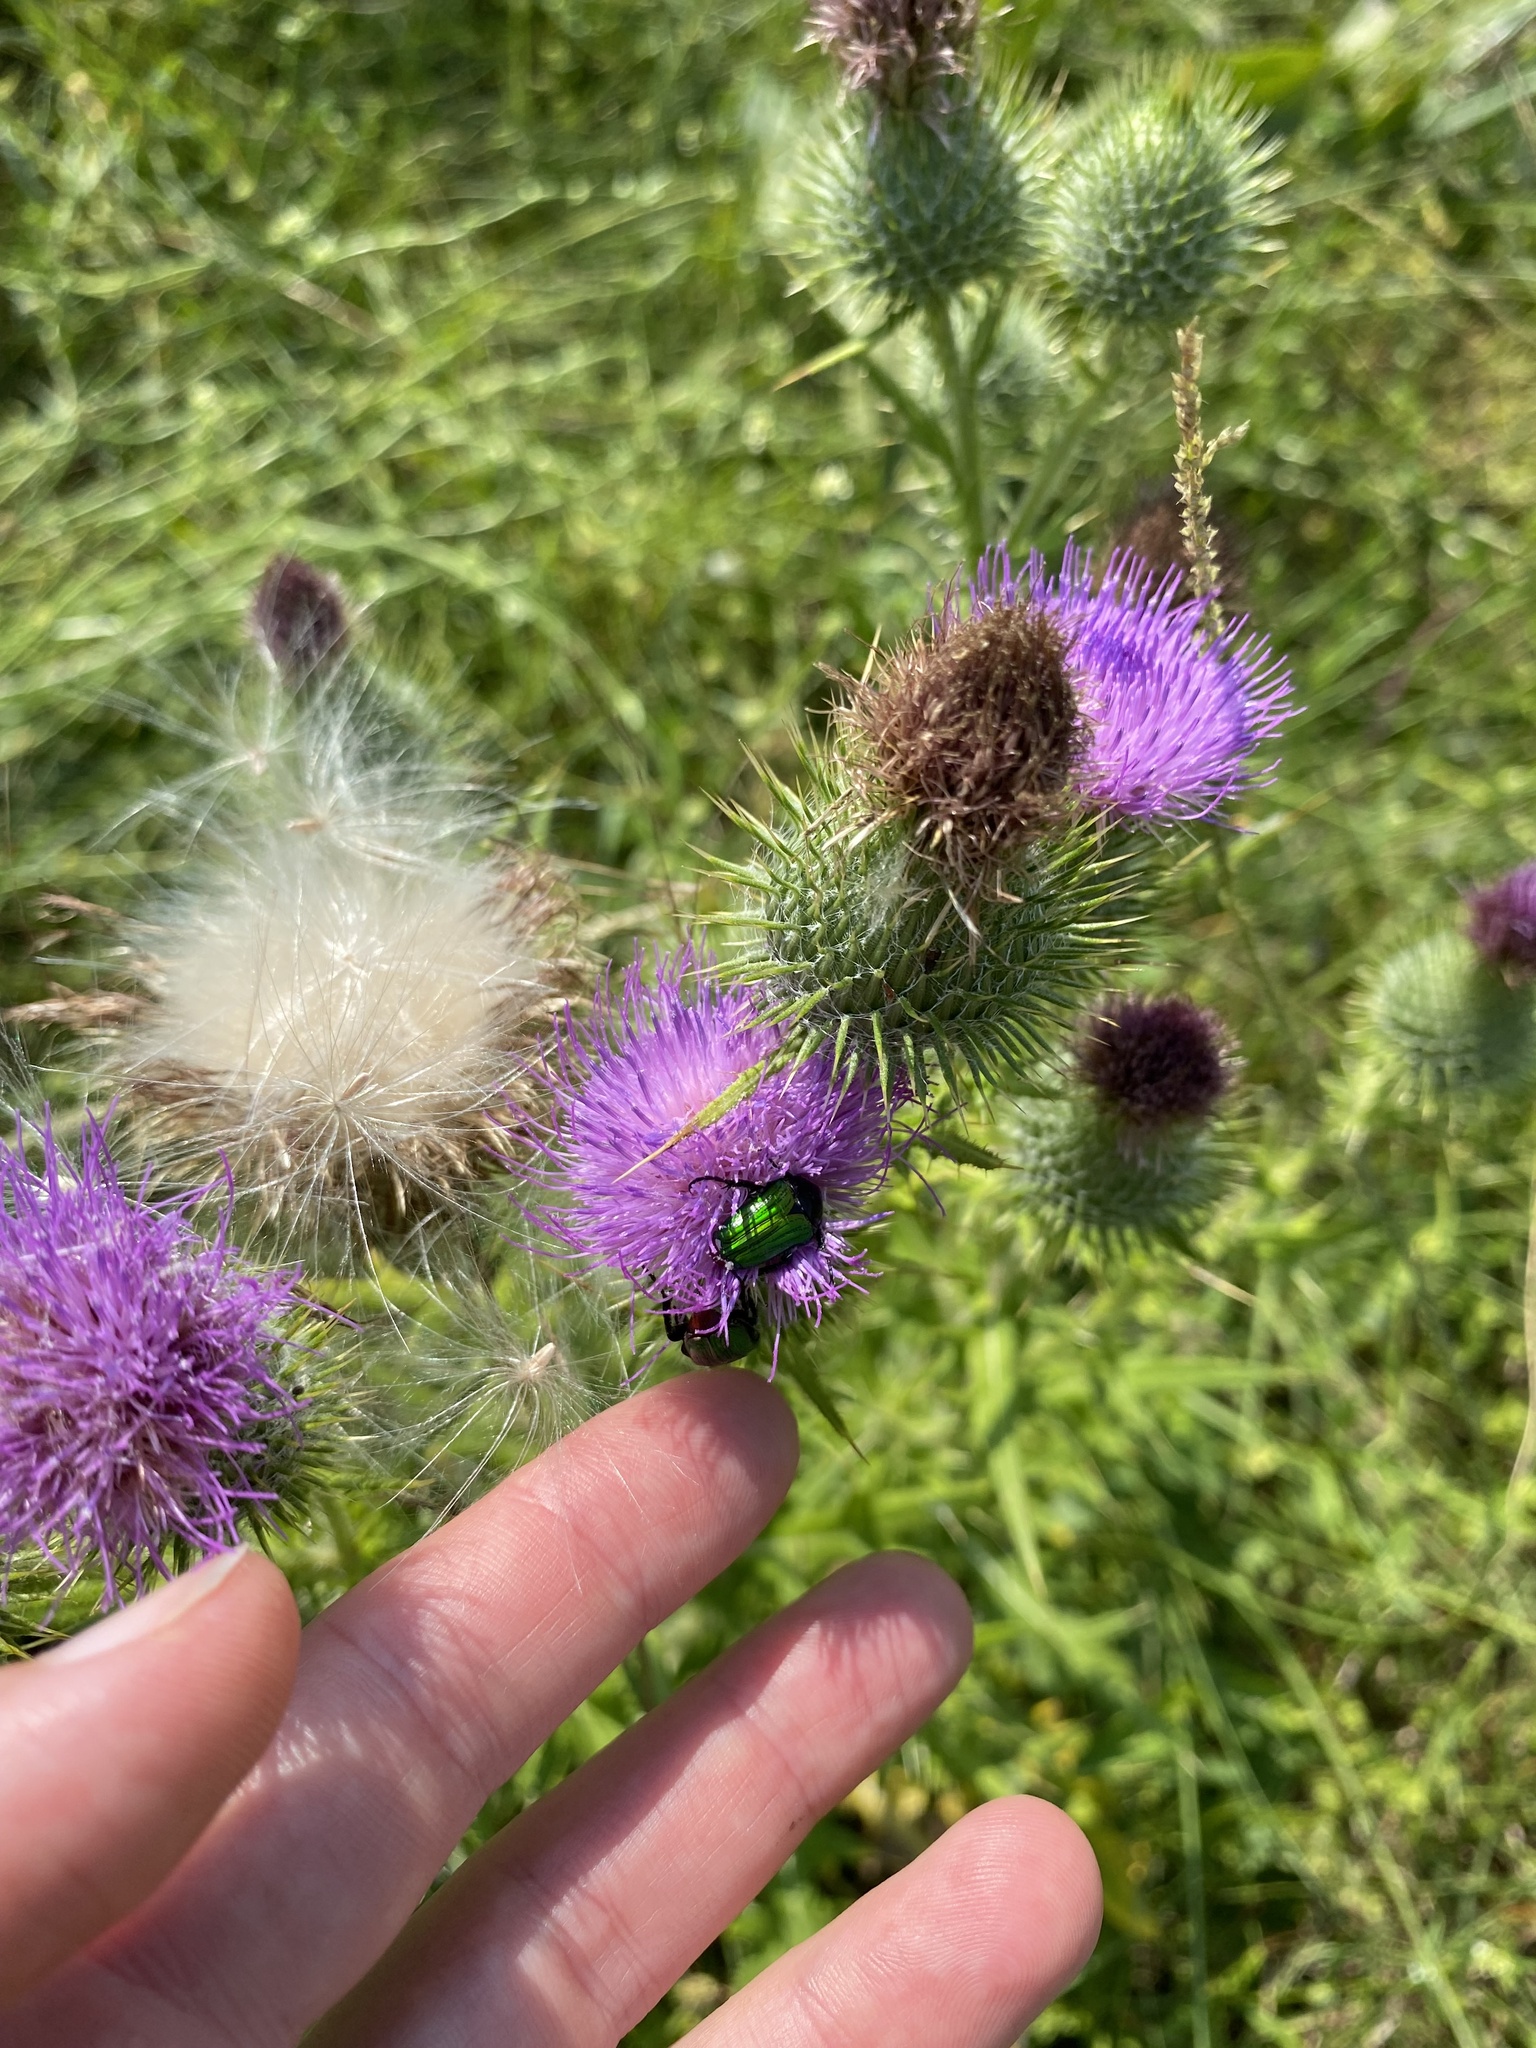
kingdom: Plantae
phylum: Tracheophyta
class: Magnoliopsida
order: Asterales
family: Asteraceae
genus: Cirsium
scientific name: Cirsium vulgare
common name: Bull thistle
